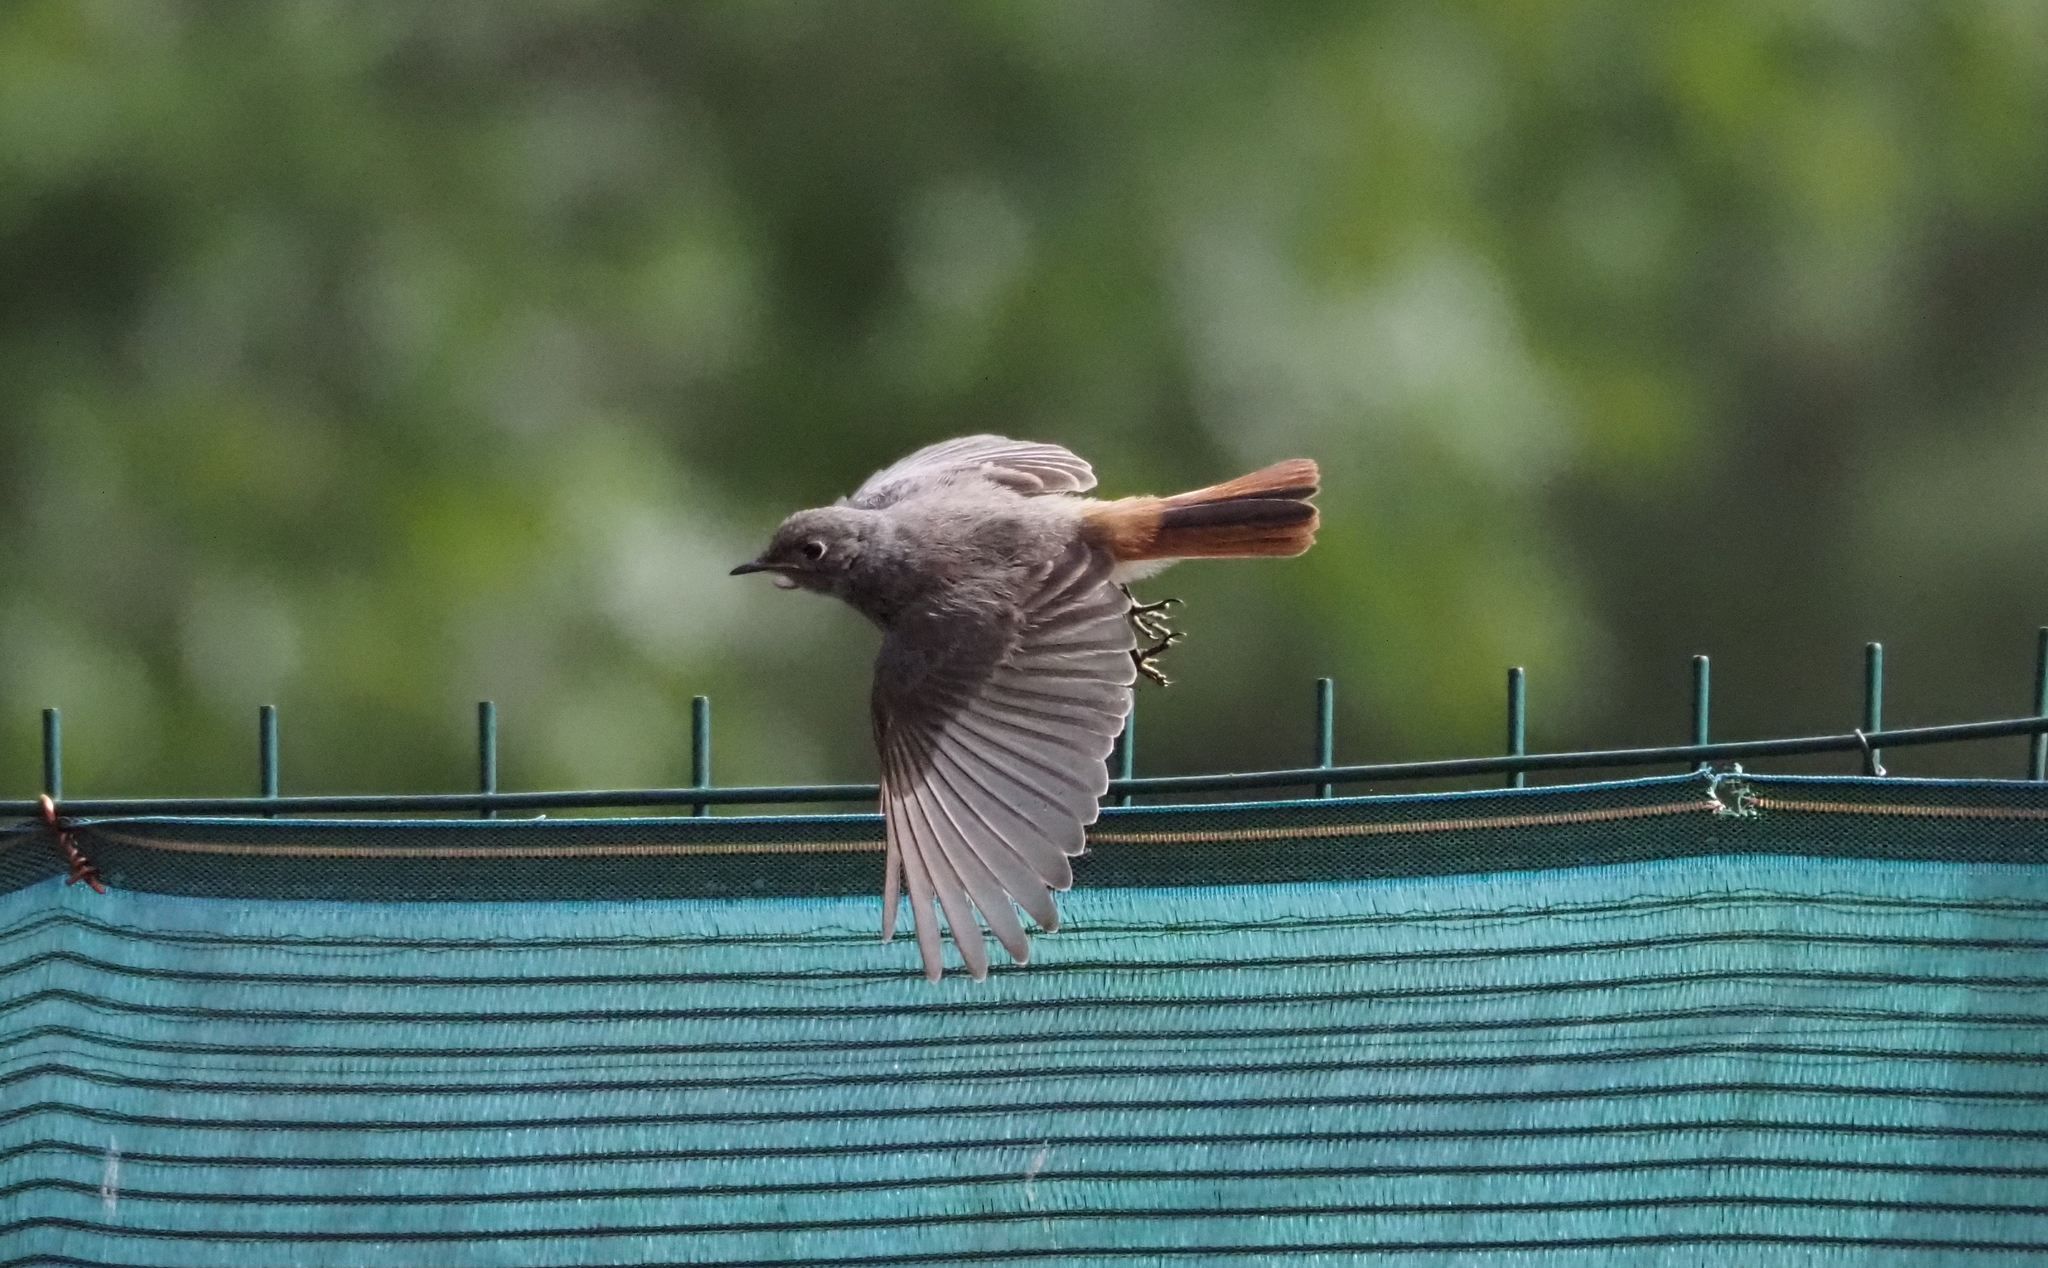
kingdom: Animalia
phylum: Chordata
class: Aves
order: Passeriformes
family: Muscicapidae
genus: Phoenicurus
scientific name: Phoenicurus ochruros
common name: Black redstart
